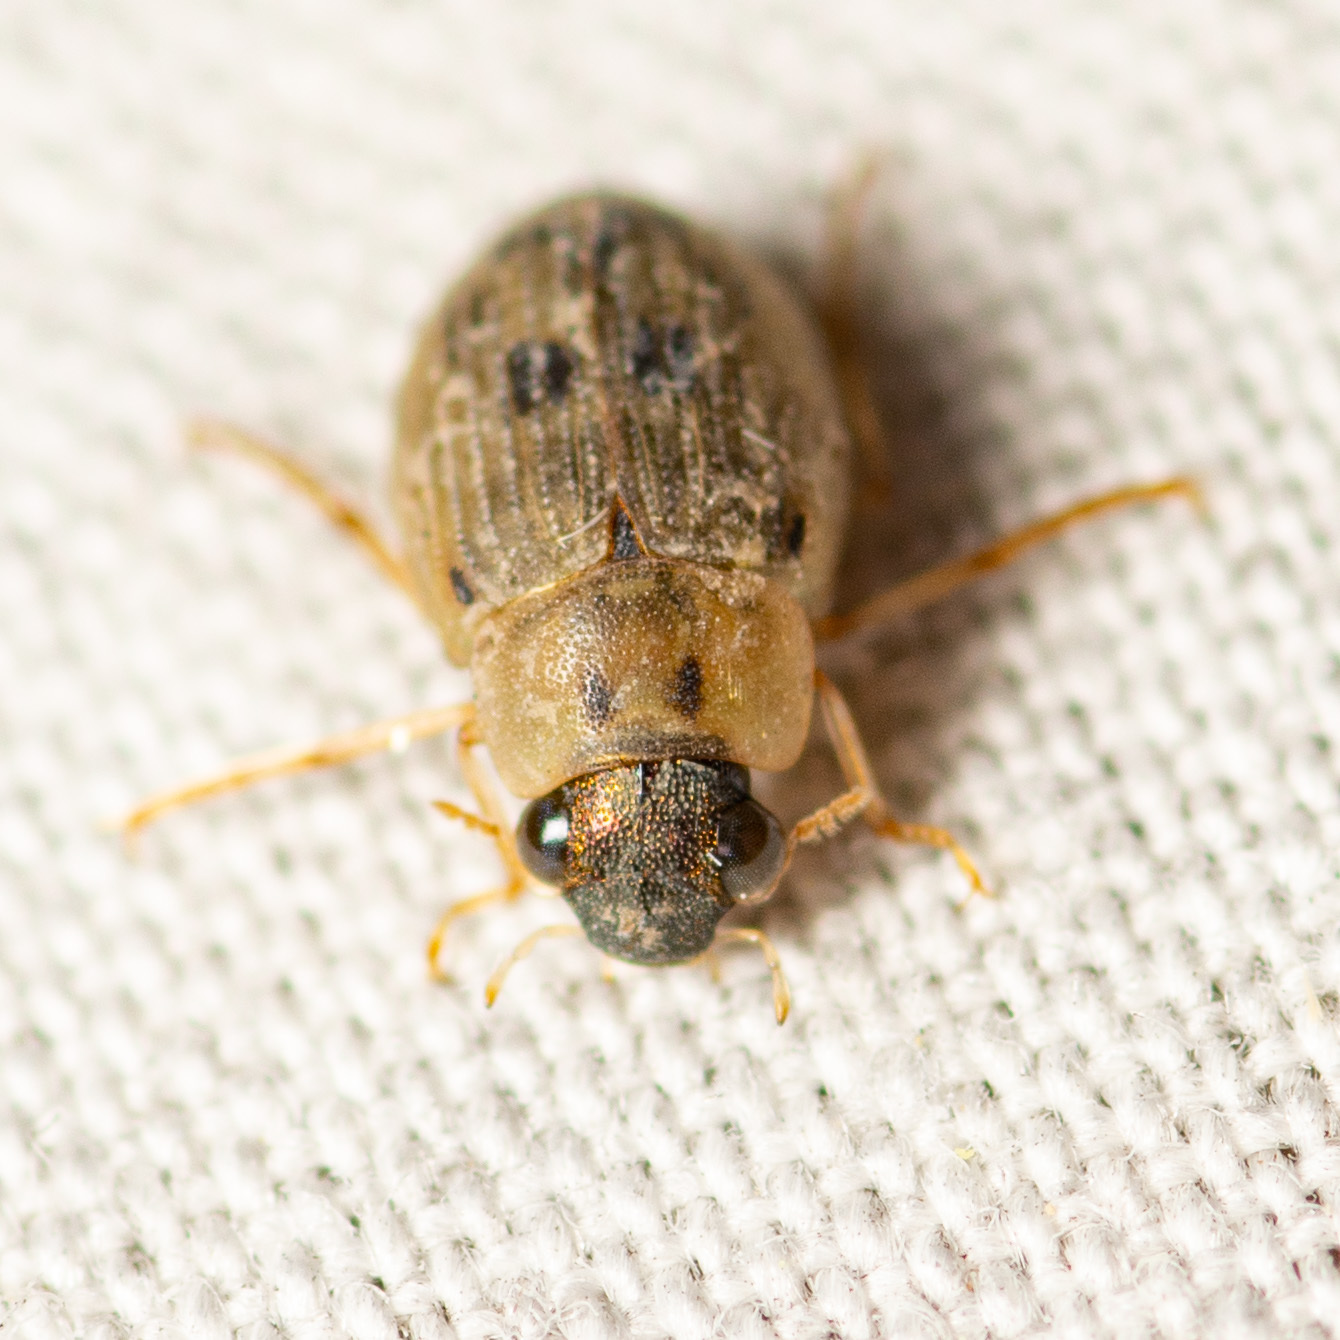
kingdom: Animalia
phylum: Arthropoda
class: Insecta
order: Coleoptera
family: Hydrophilidae
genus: Berosus
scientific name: Berosus peregrinus
